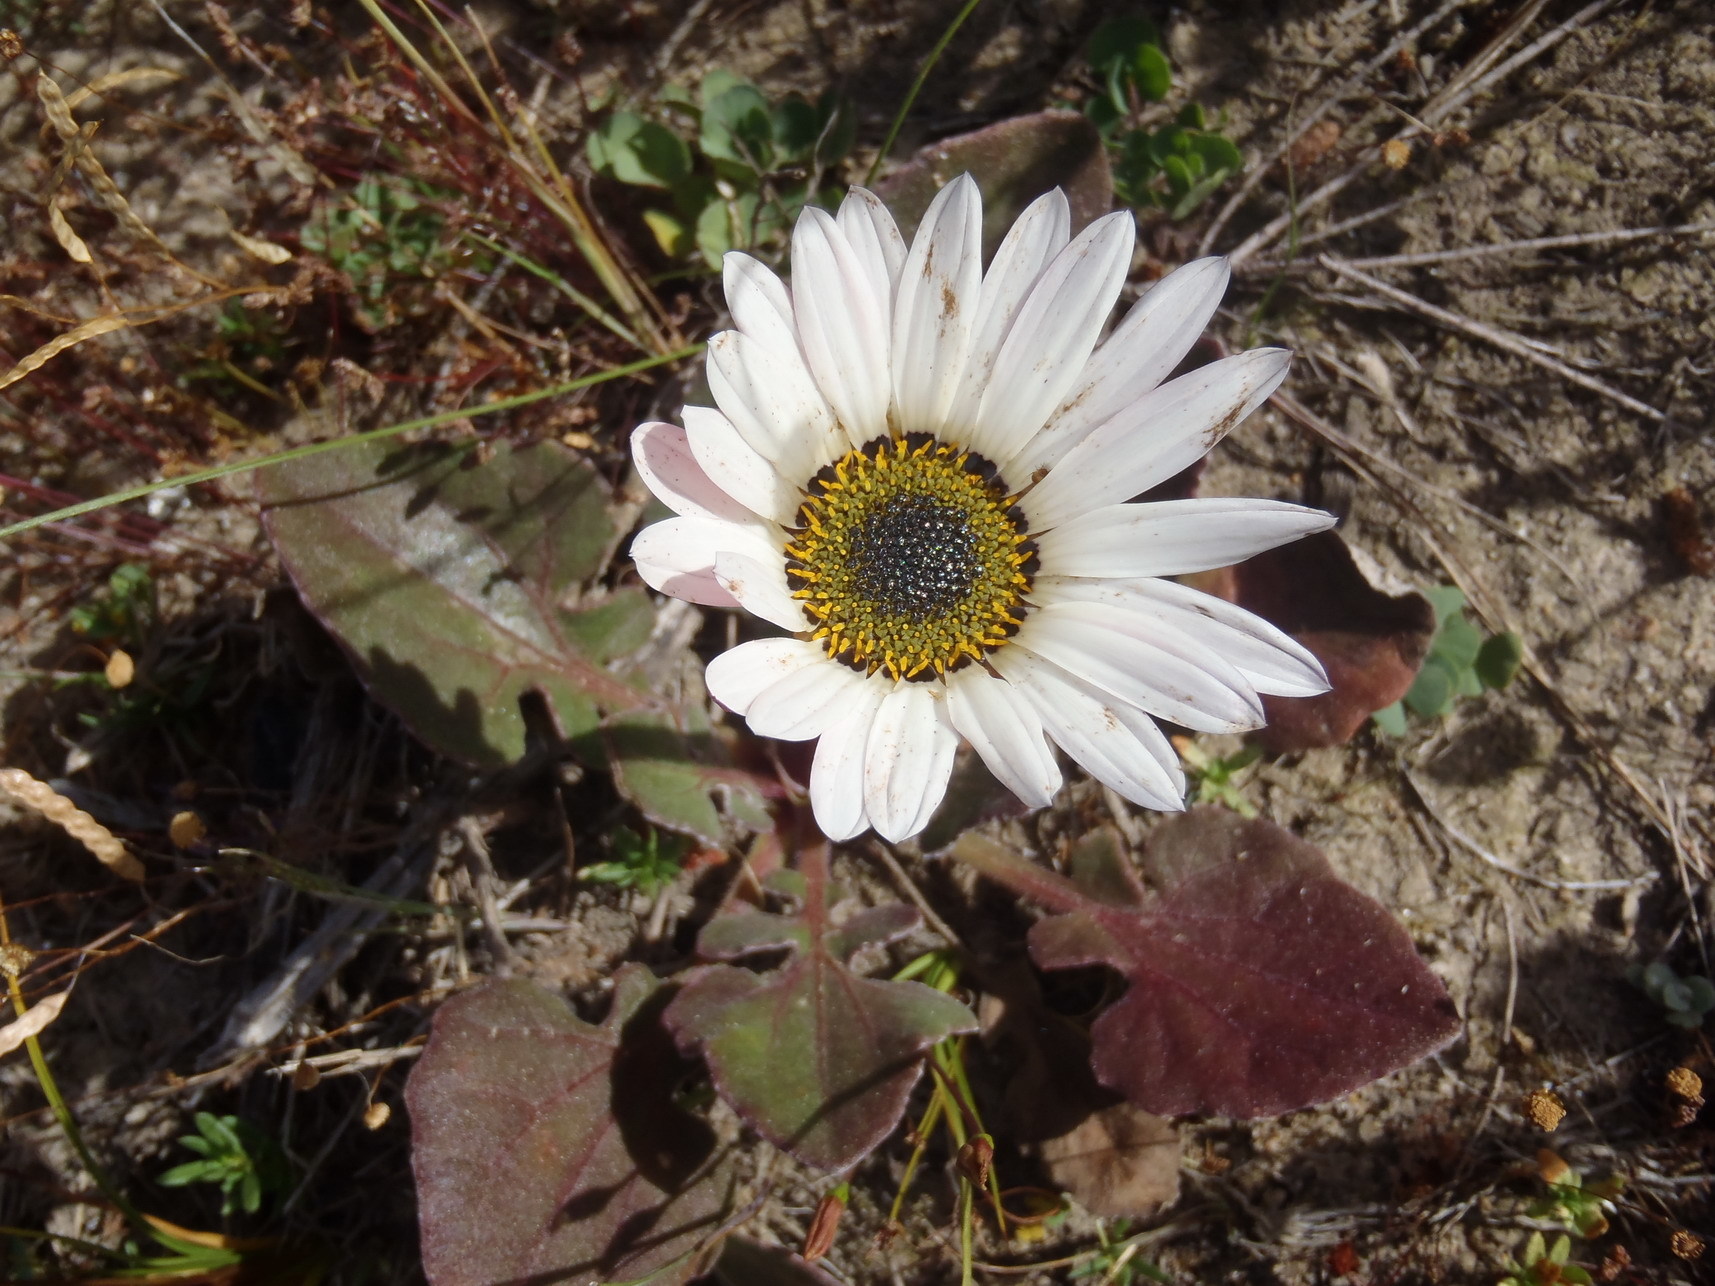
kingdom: Plantae
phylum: Tracheophyta
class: Magnoliopsida
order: Asterales
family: Asteraceae
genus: Arctotis
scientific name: Arctotis acaulis
